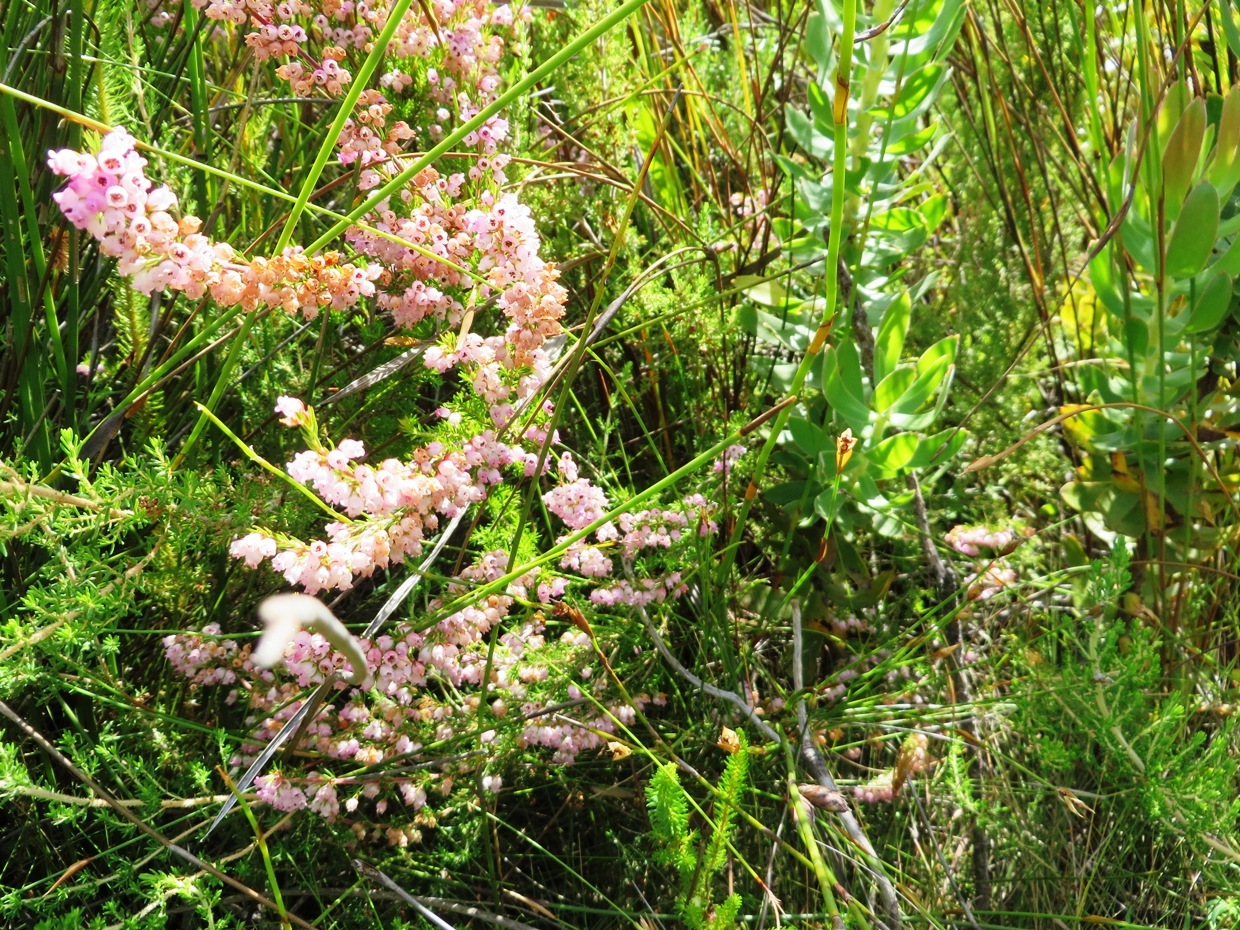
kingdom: Plantae
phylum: Tracheophyta
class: Magnoliopsida
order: Ericales
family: Ericaceae
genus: Erica
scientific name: Erica tenella
